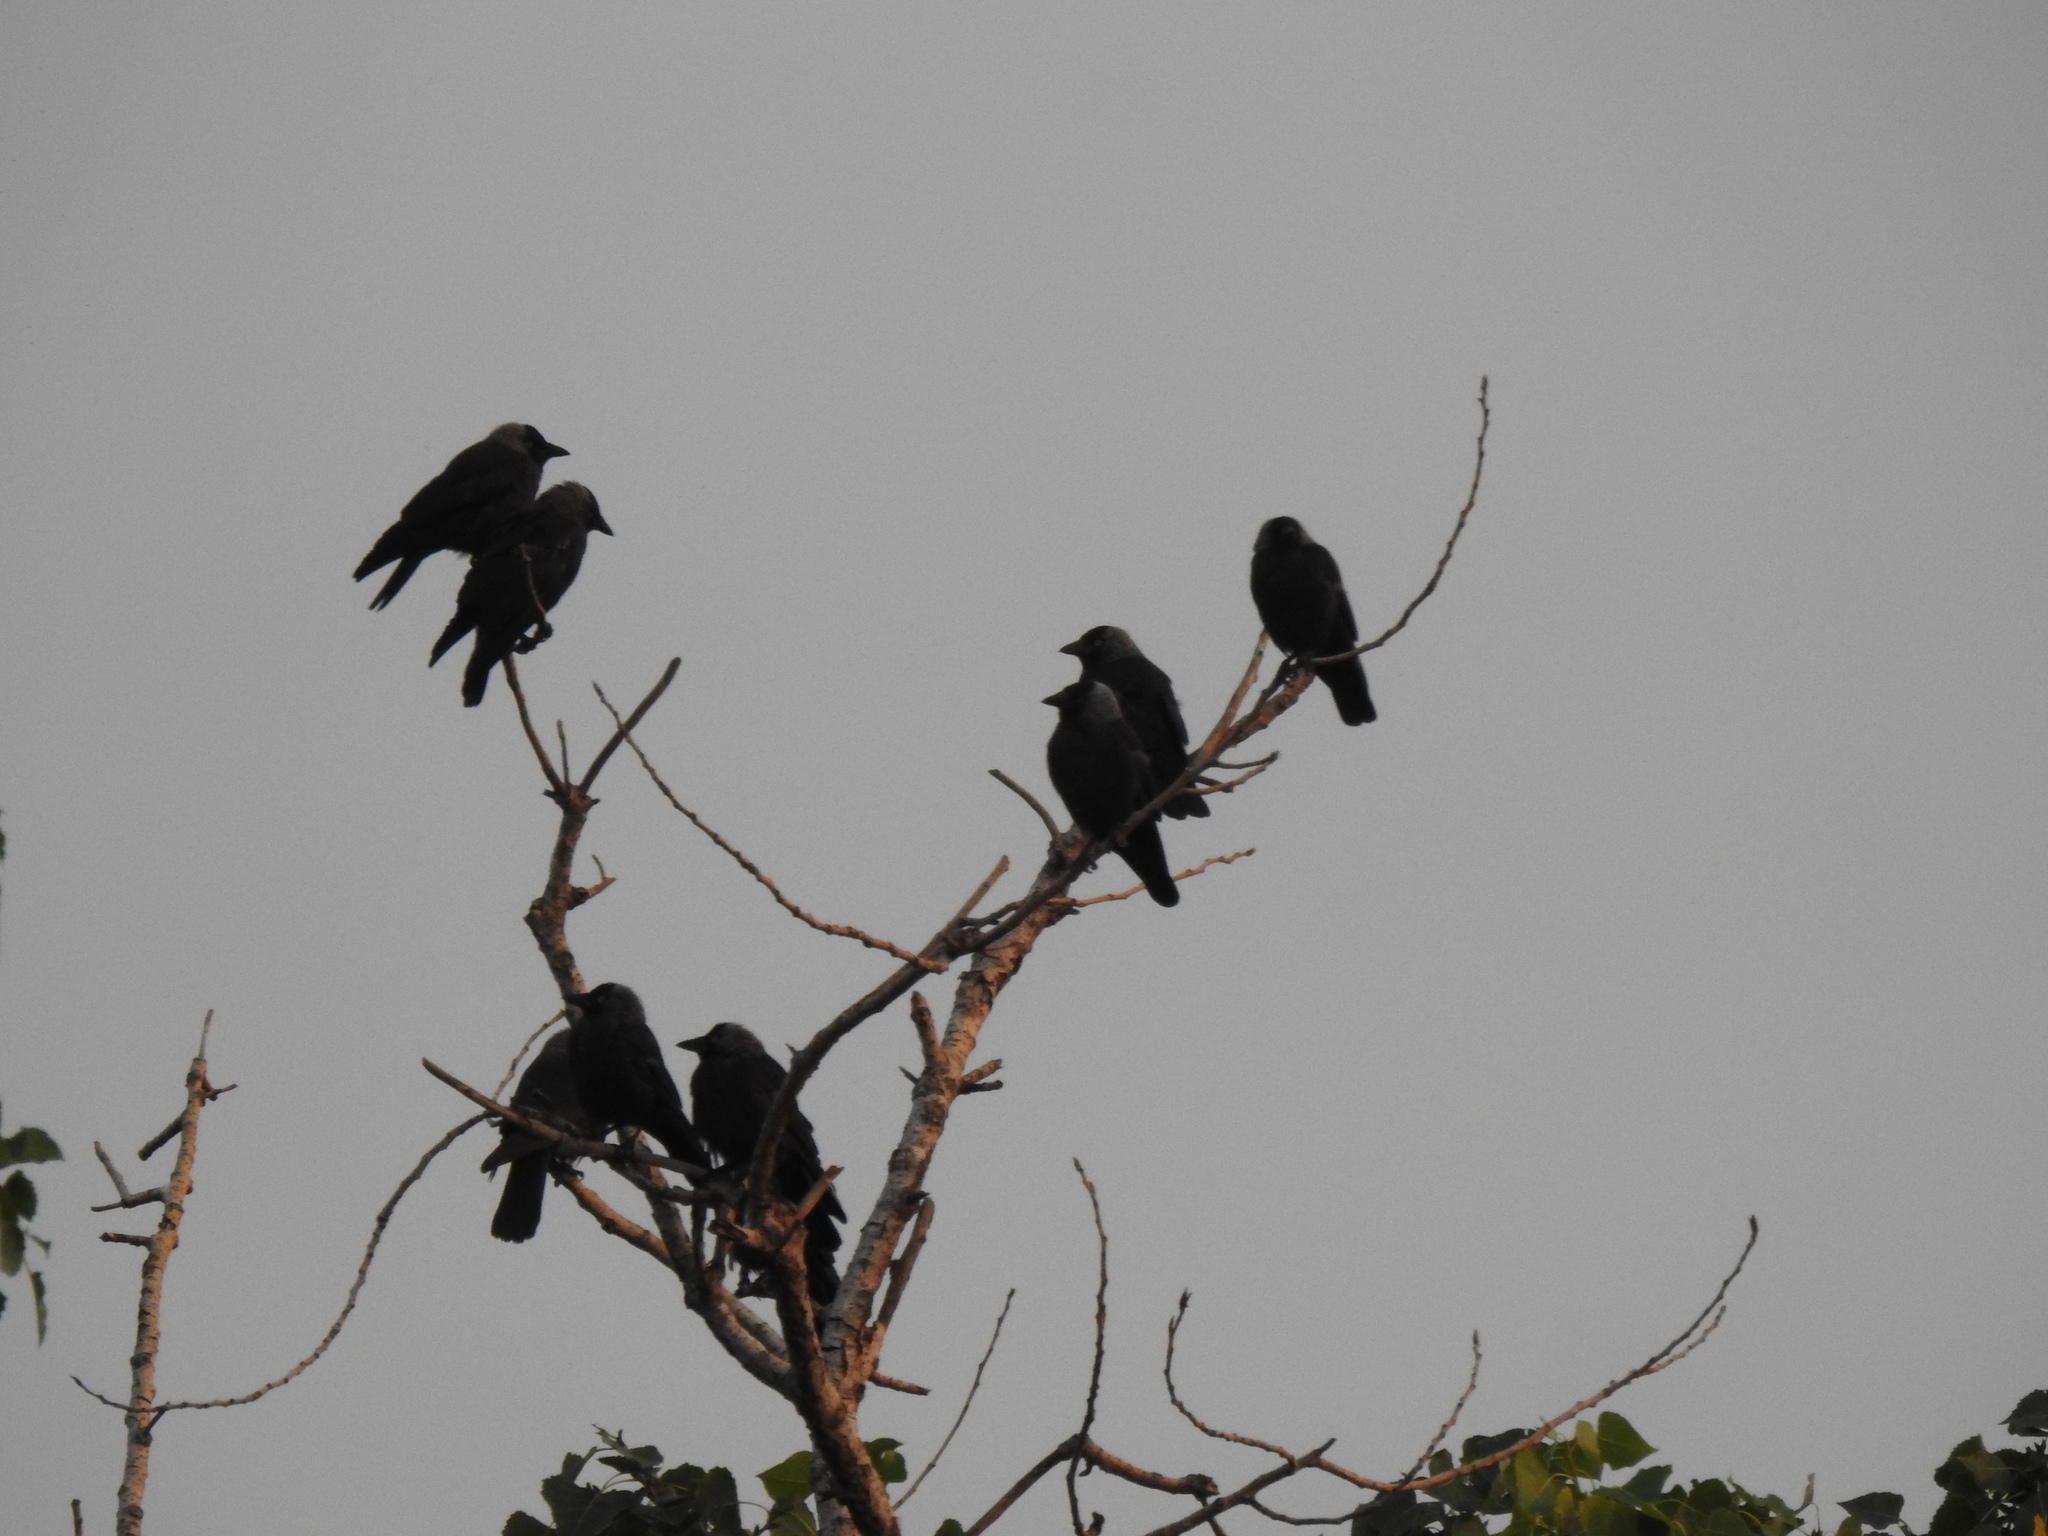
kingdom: Animalia
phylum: Chordata
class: Aves
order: Passeriformes
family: Corvidae
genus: Coloeus
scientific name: Coloeus monedula
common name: Western jackdaw
